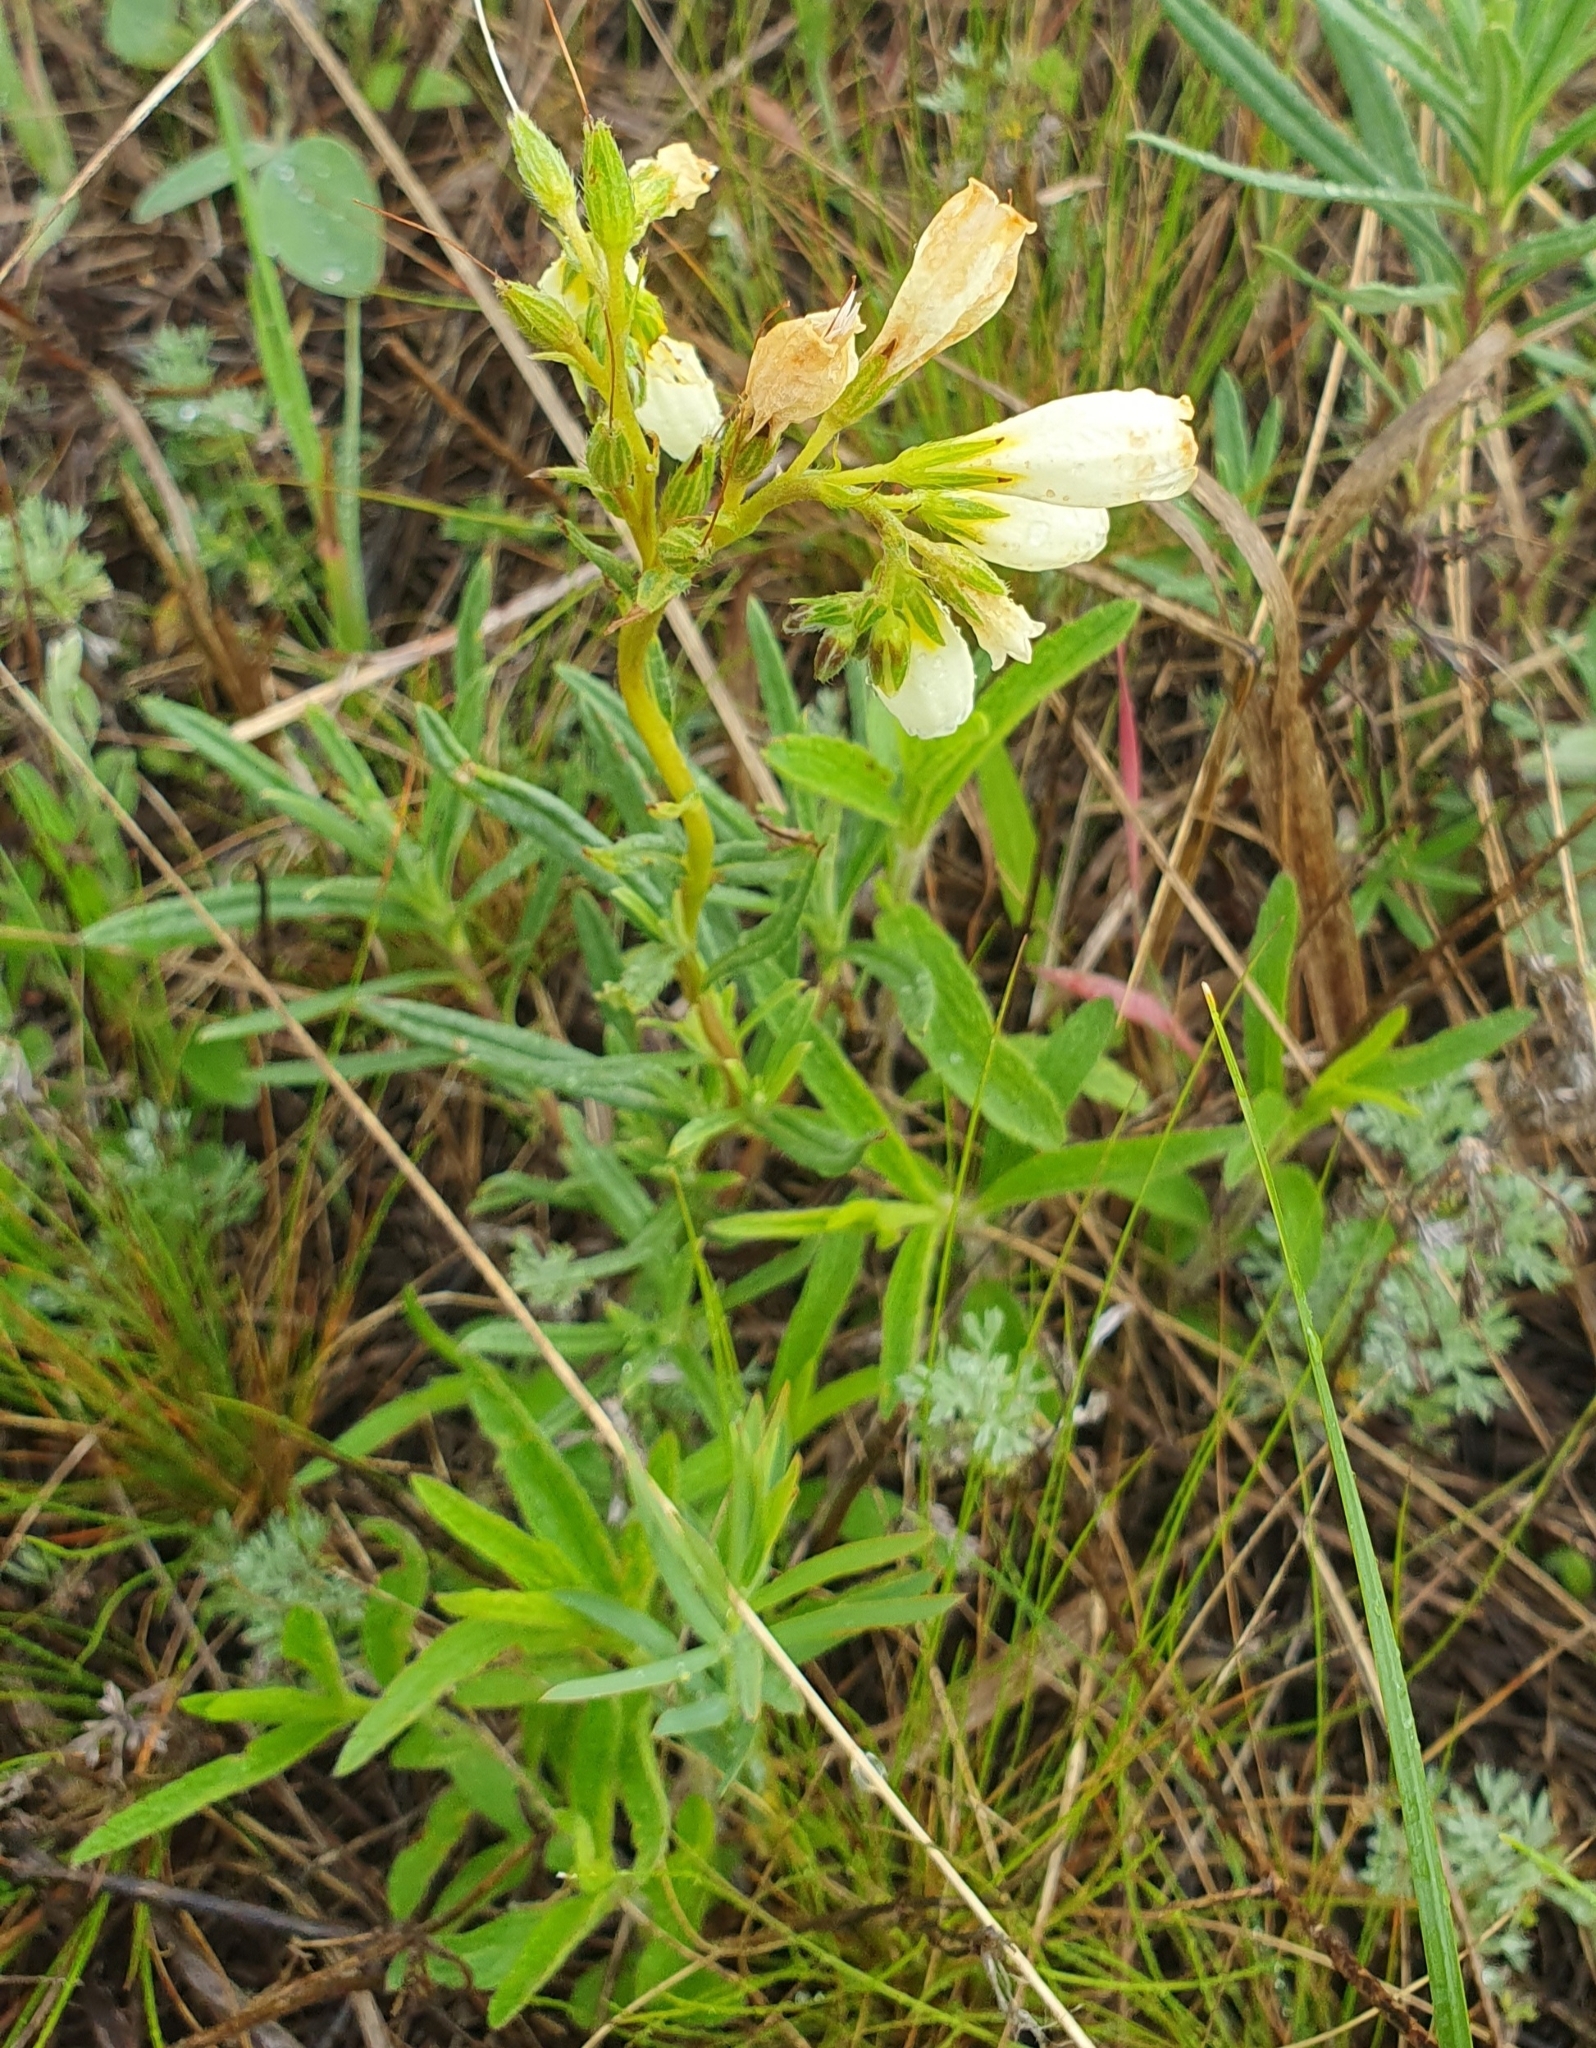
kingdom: Plantae
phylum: Tracheophyta
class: Magnoliopsida
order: Boraginales
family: Boraginaceae
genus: Onosma
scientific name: Onosma simplicissima
